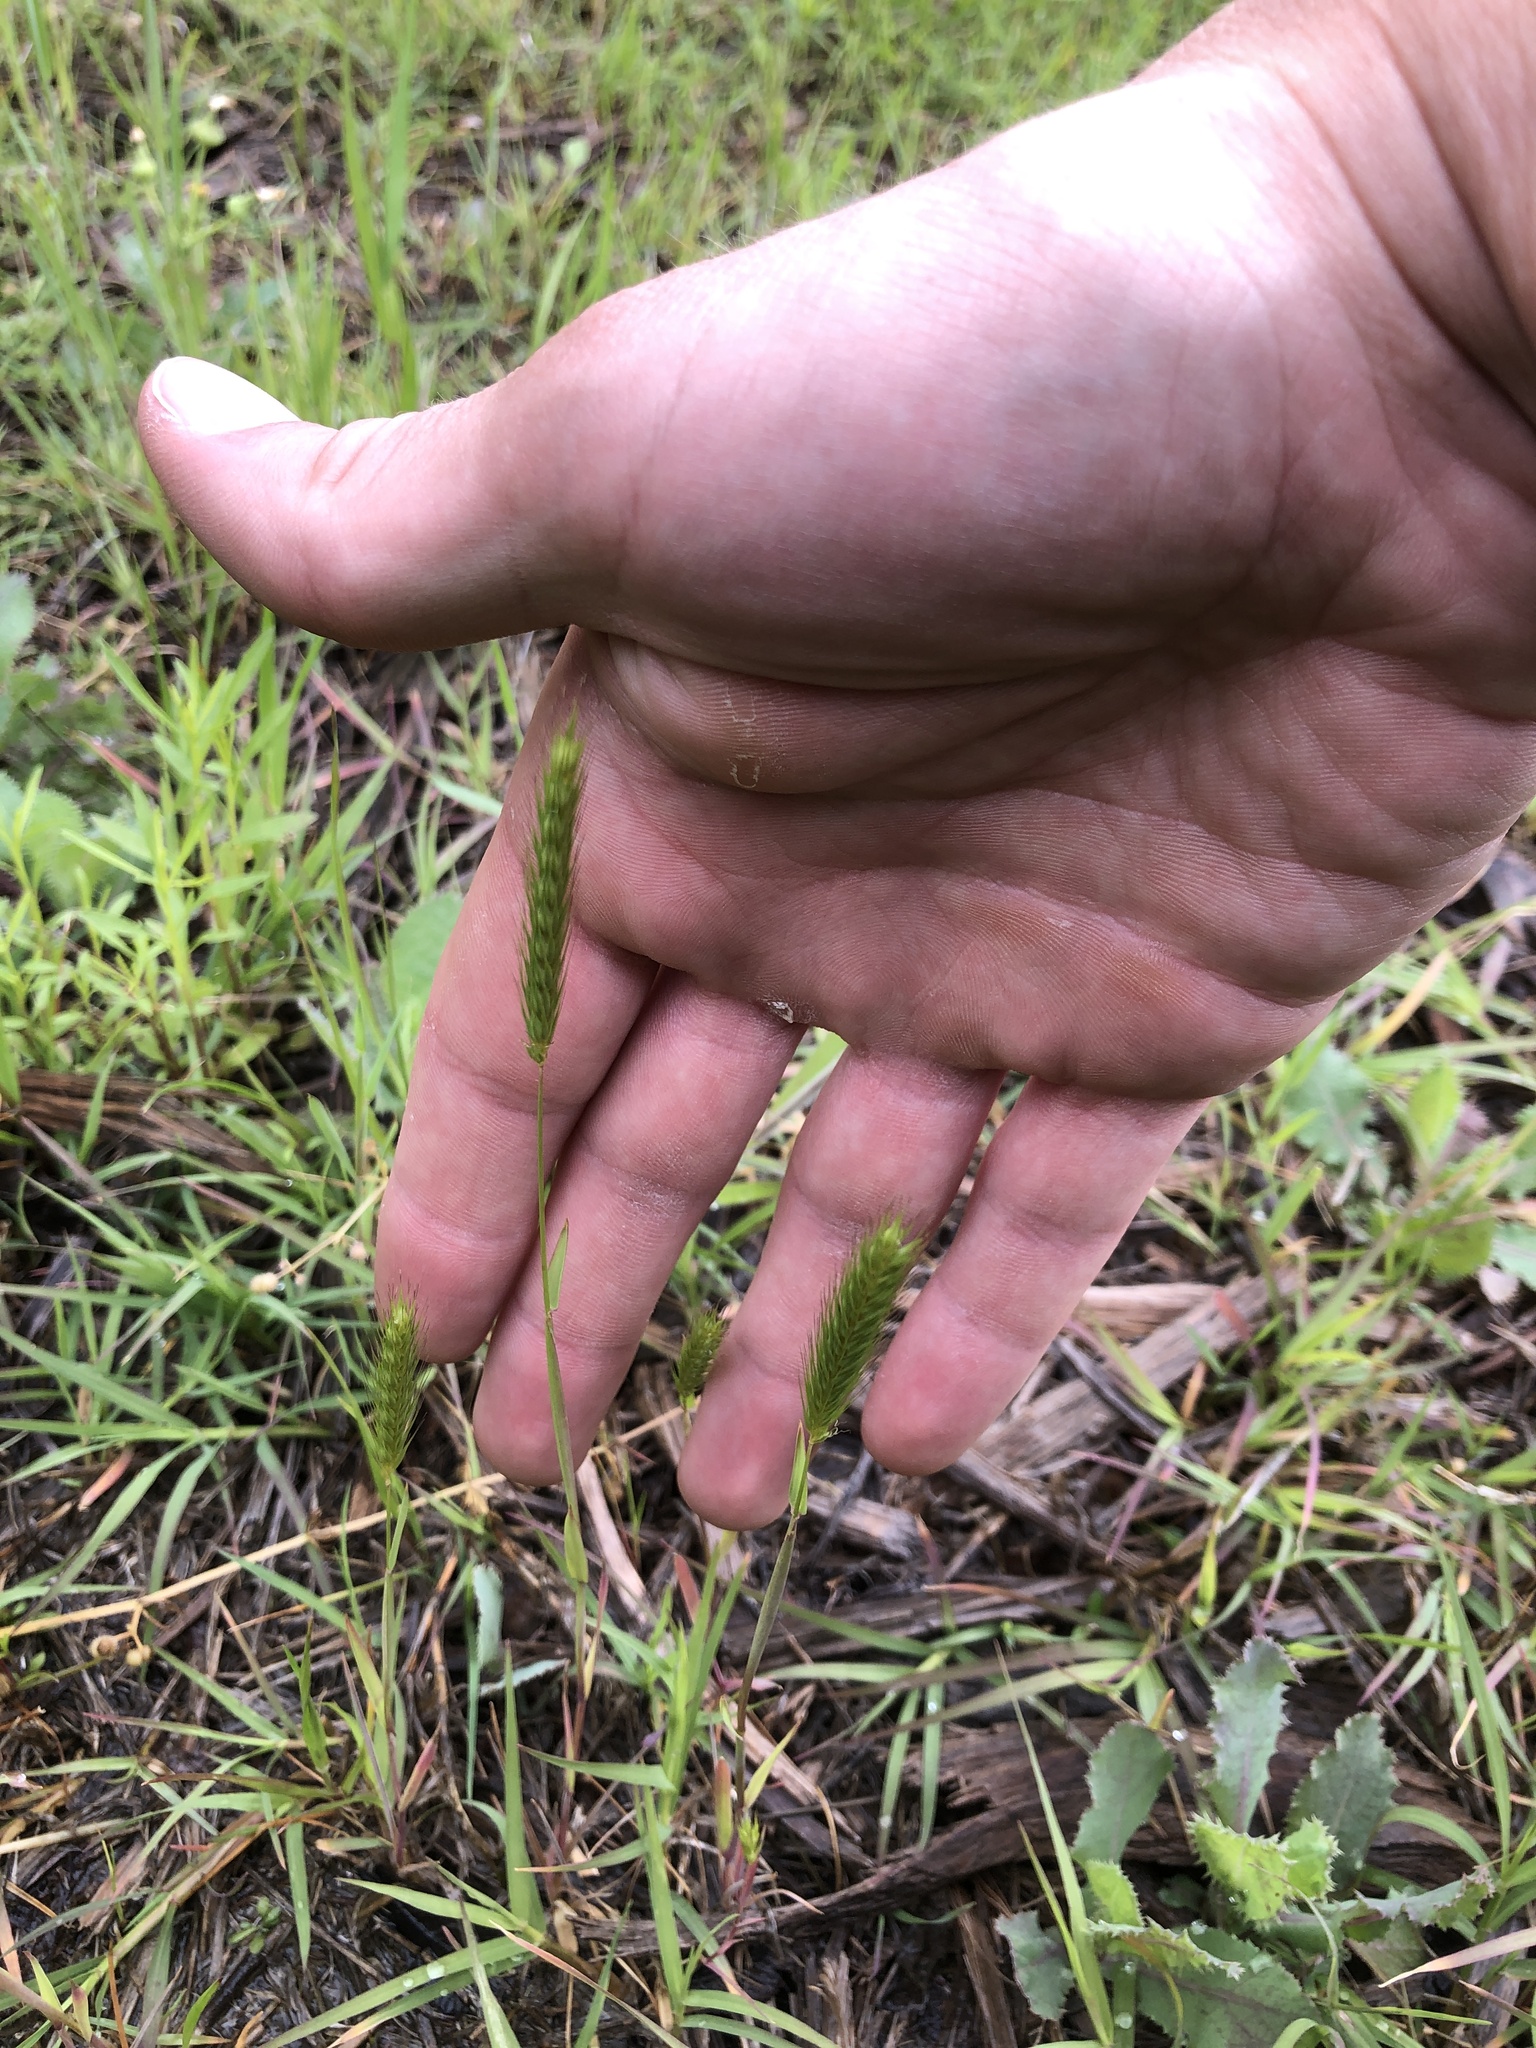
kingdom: Plantae
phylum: Tracheophyta
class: Liliopsida
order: Poales
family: Poaceae
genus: Hordeum
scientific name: Hordeum pusillum
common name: Little barley
